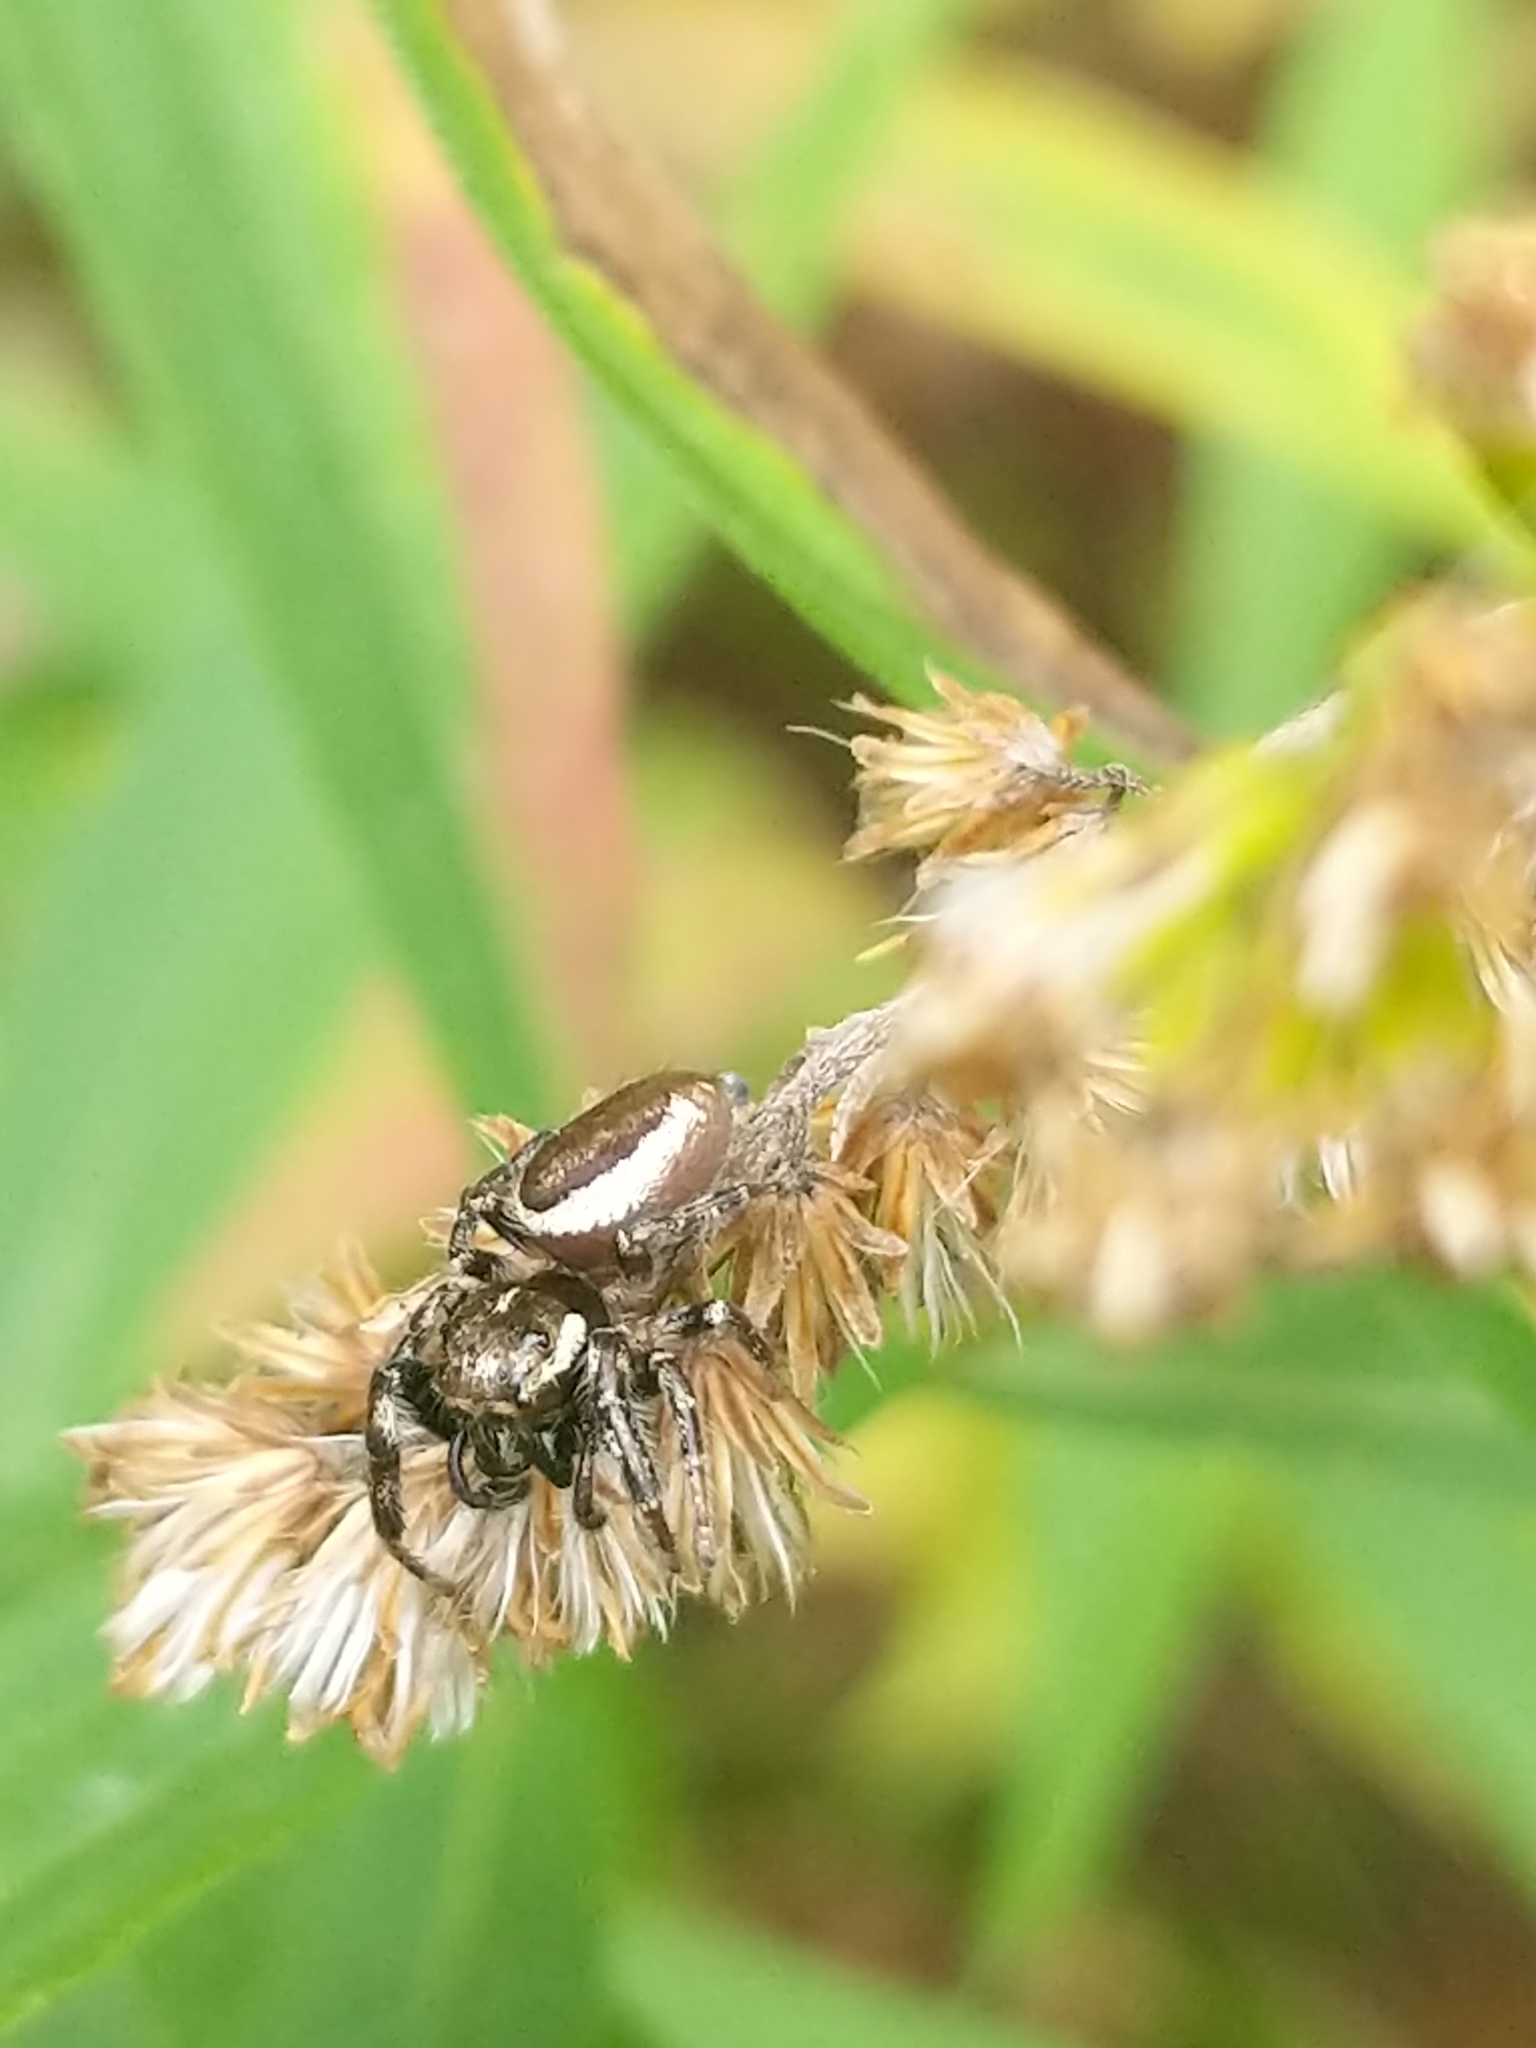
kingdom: Animalia
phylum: Arthropoda
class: Arachnida
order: Araneae
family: Salticidae
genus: Eris
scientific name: Eris militaris
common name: Bronze jumper
